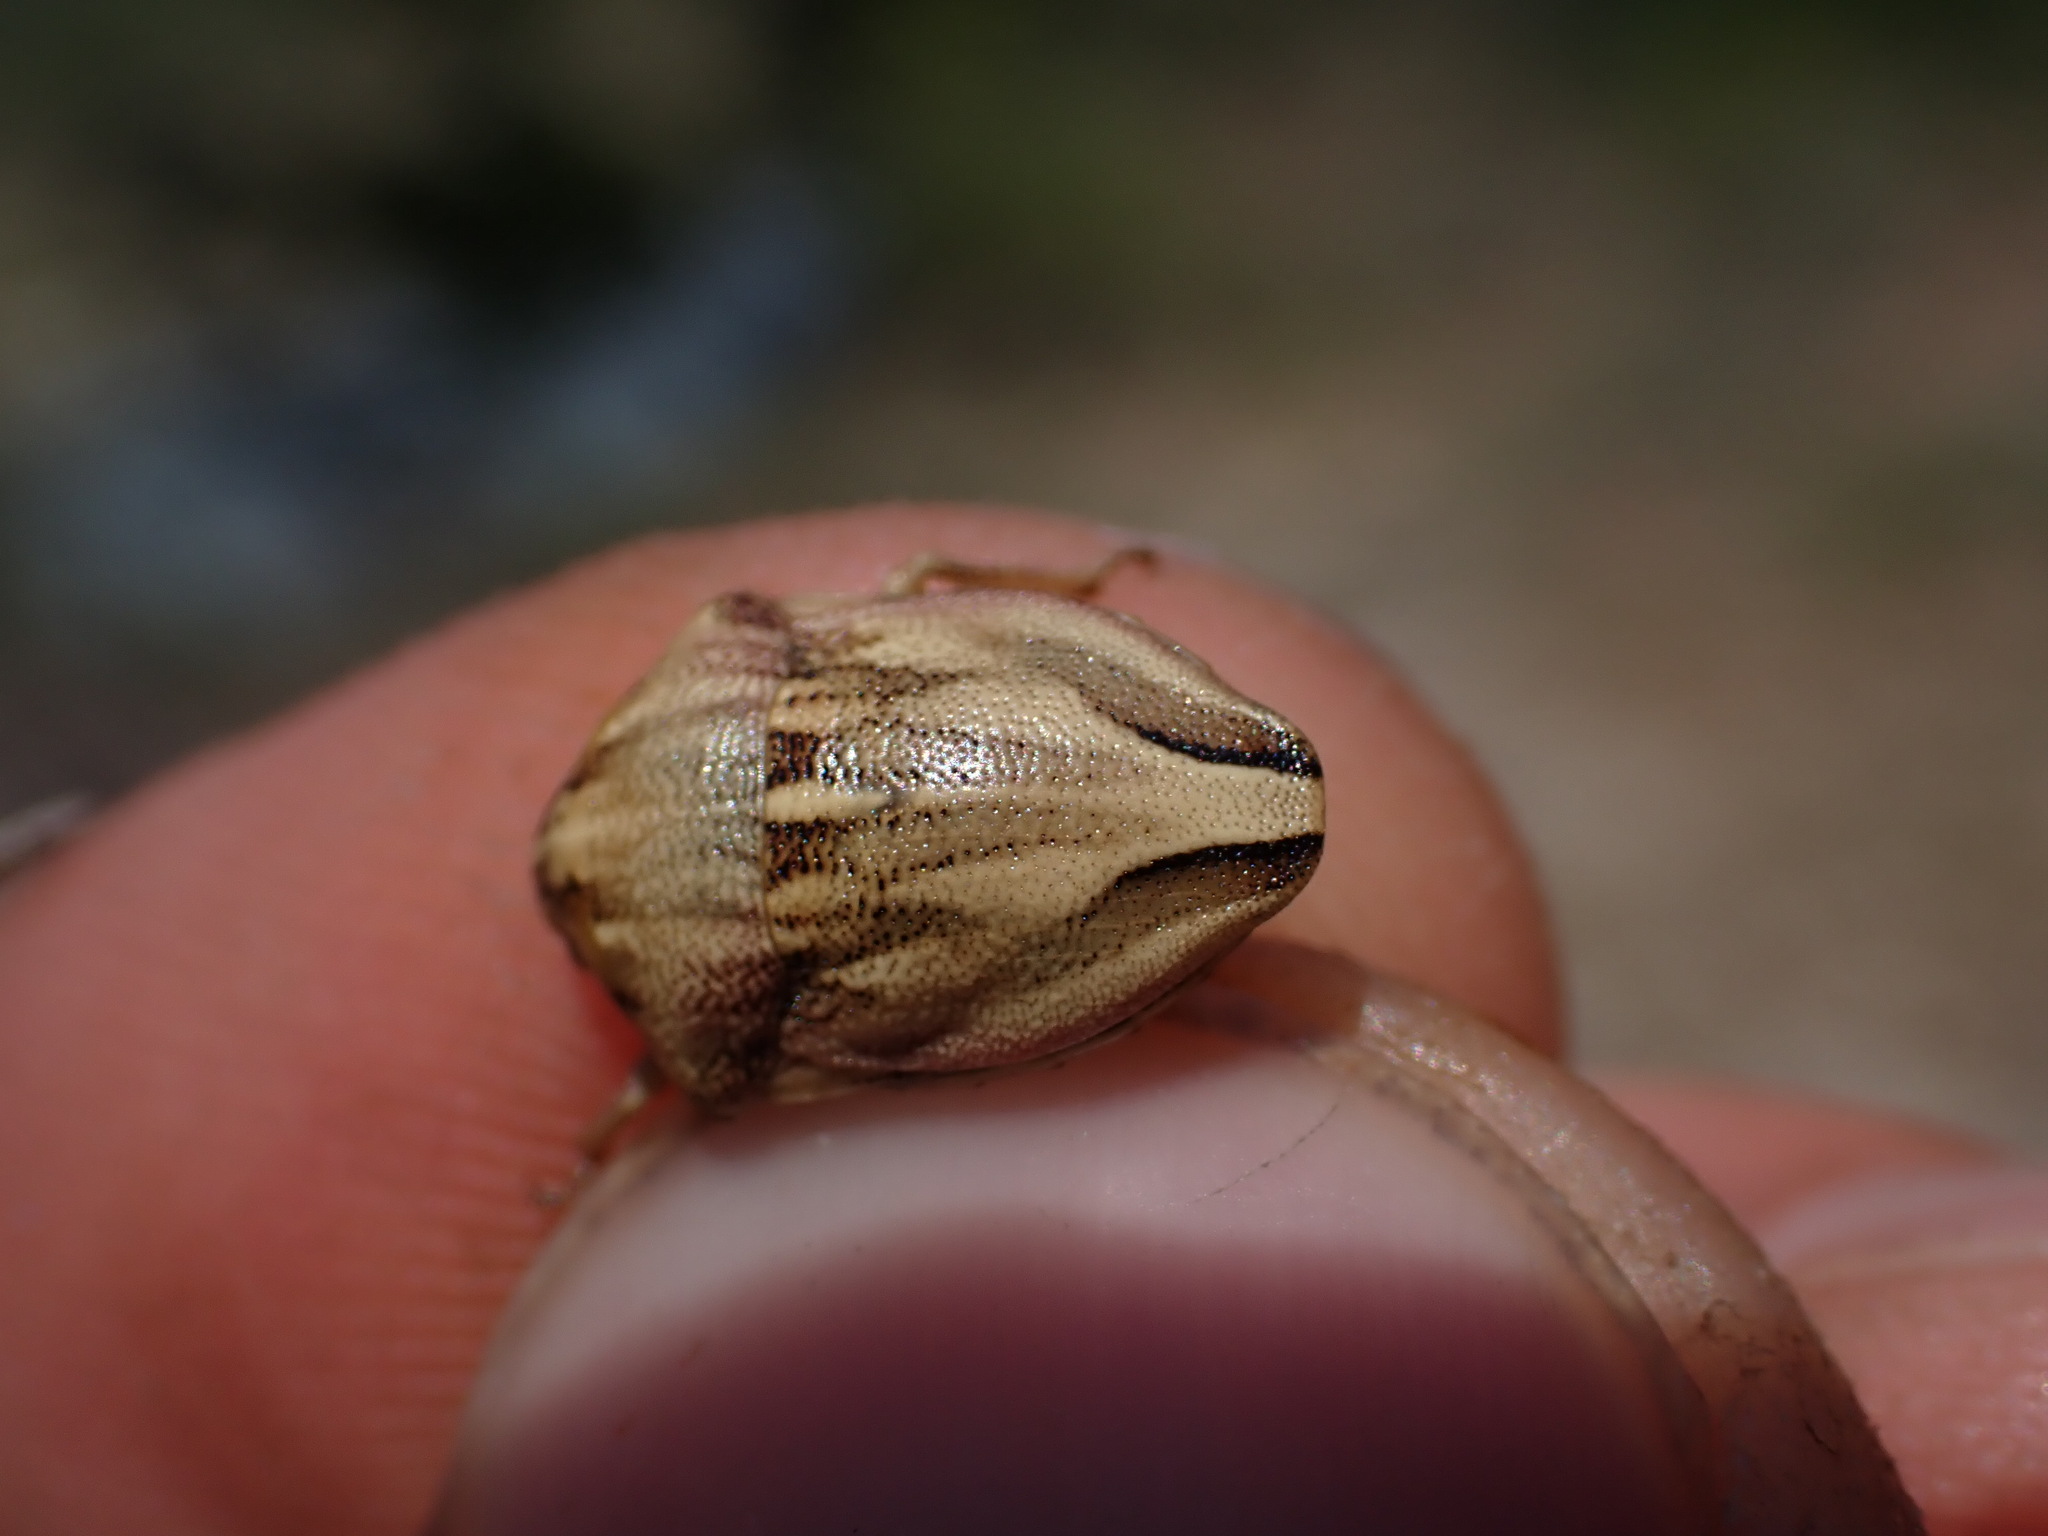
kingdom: Animalia
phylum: Arthropoda
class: Insecta
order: Hemiptera
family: Scutelleridae
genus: Odontotarsus
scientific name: Odontotarsus purpureolineatus
